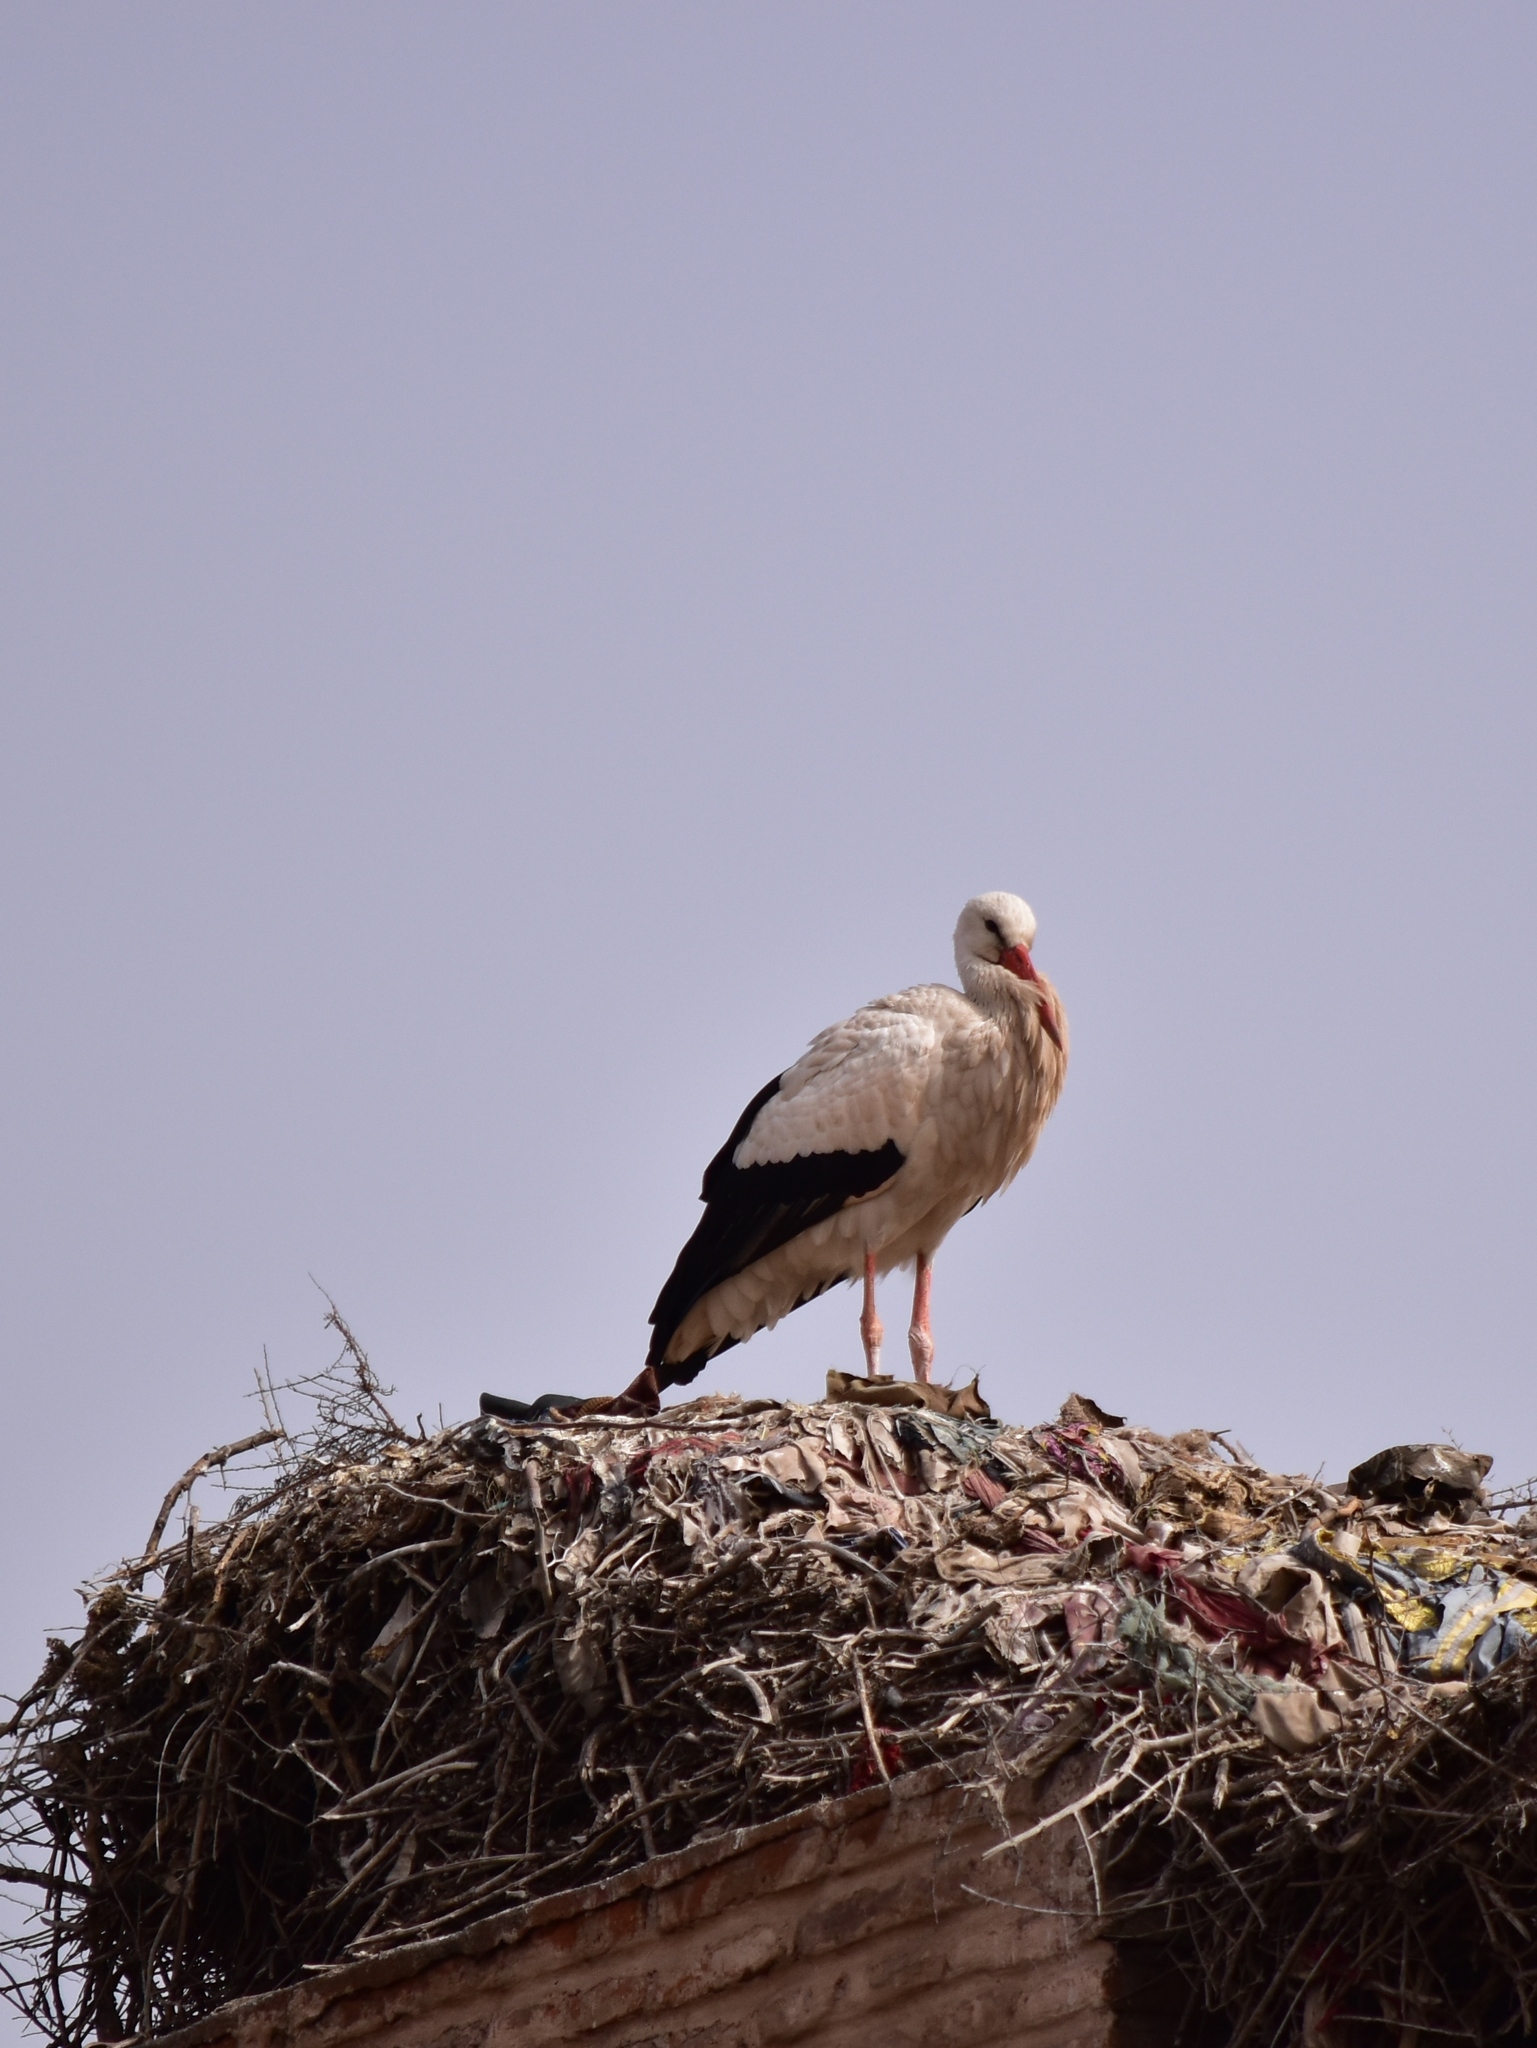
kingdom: Animalia
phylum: Chordata
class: Aves
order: Ciconiiformes
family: Ciconiidae
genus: Ciconia
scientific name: Ciconia ciconia
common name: White stork
